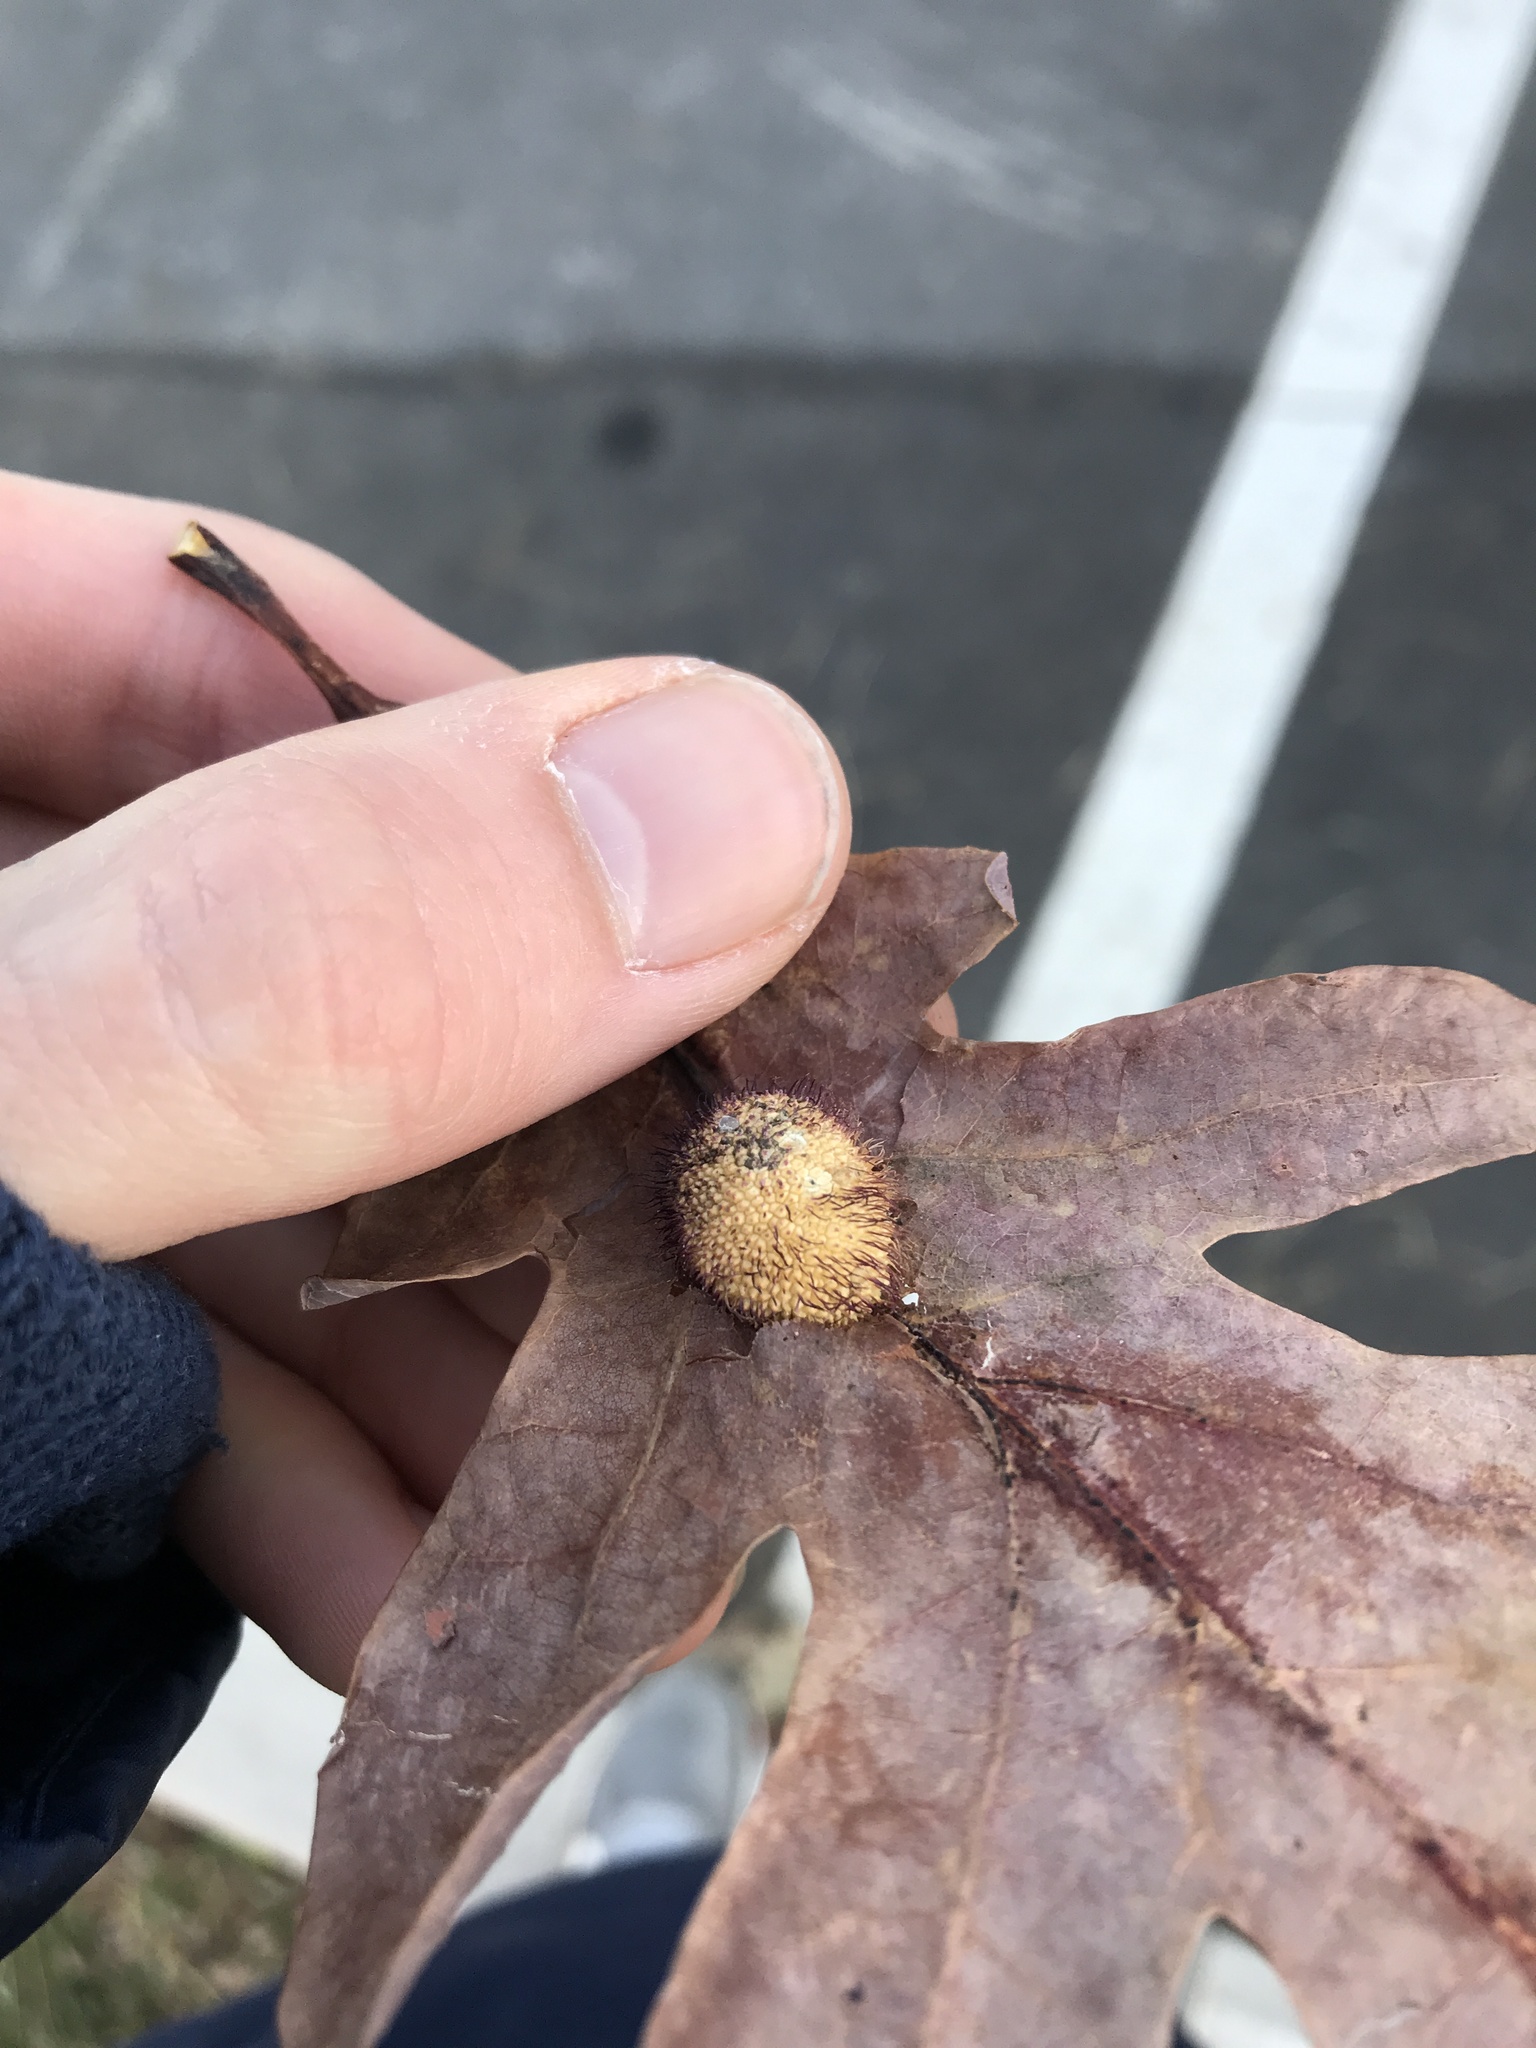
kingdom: Animalia
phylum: Arthropoda
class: Insecta
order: Hymenoptera
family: Cynipidae
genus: Acraspis
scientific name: Acraspis erinacei
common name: Hedgehog gall wasp
